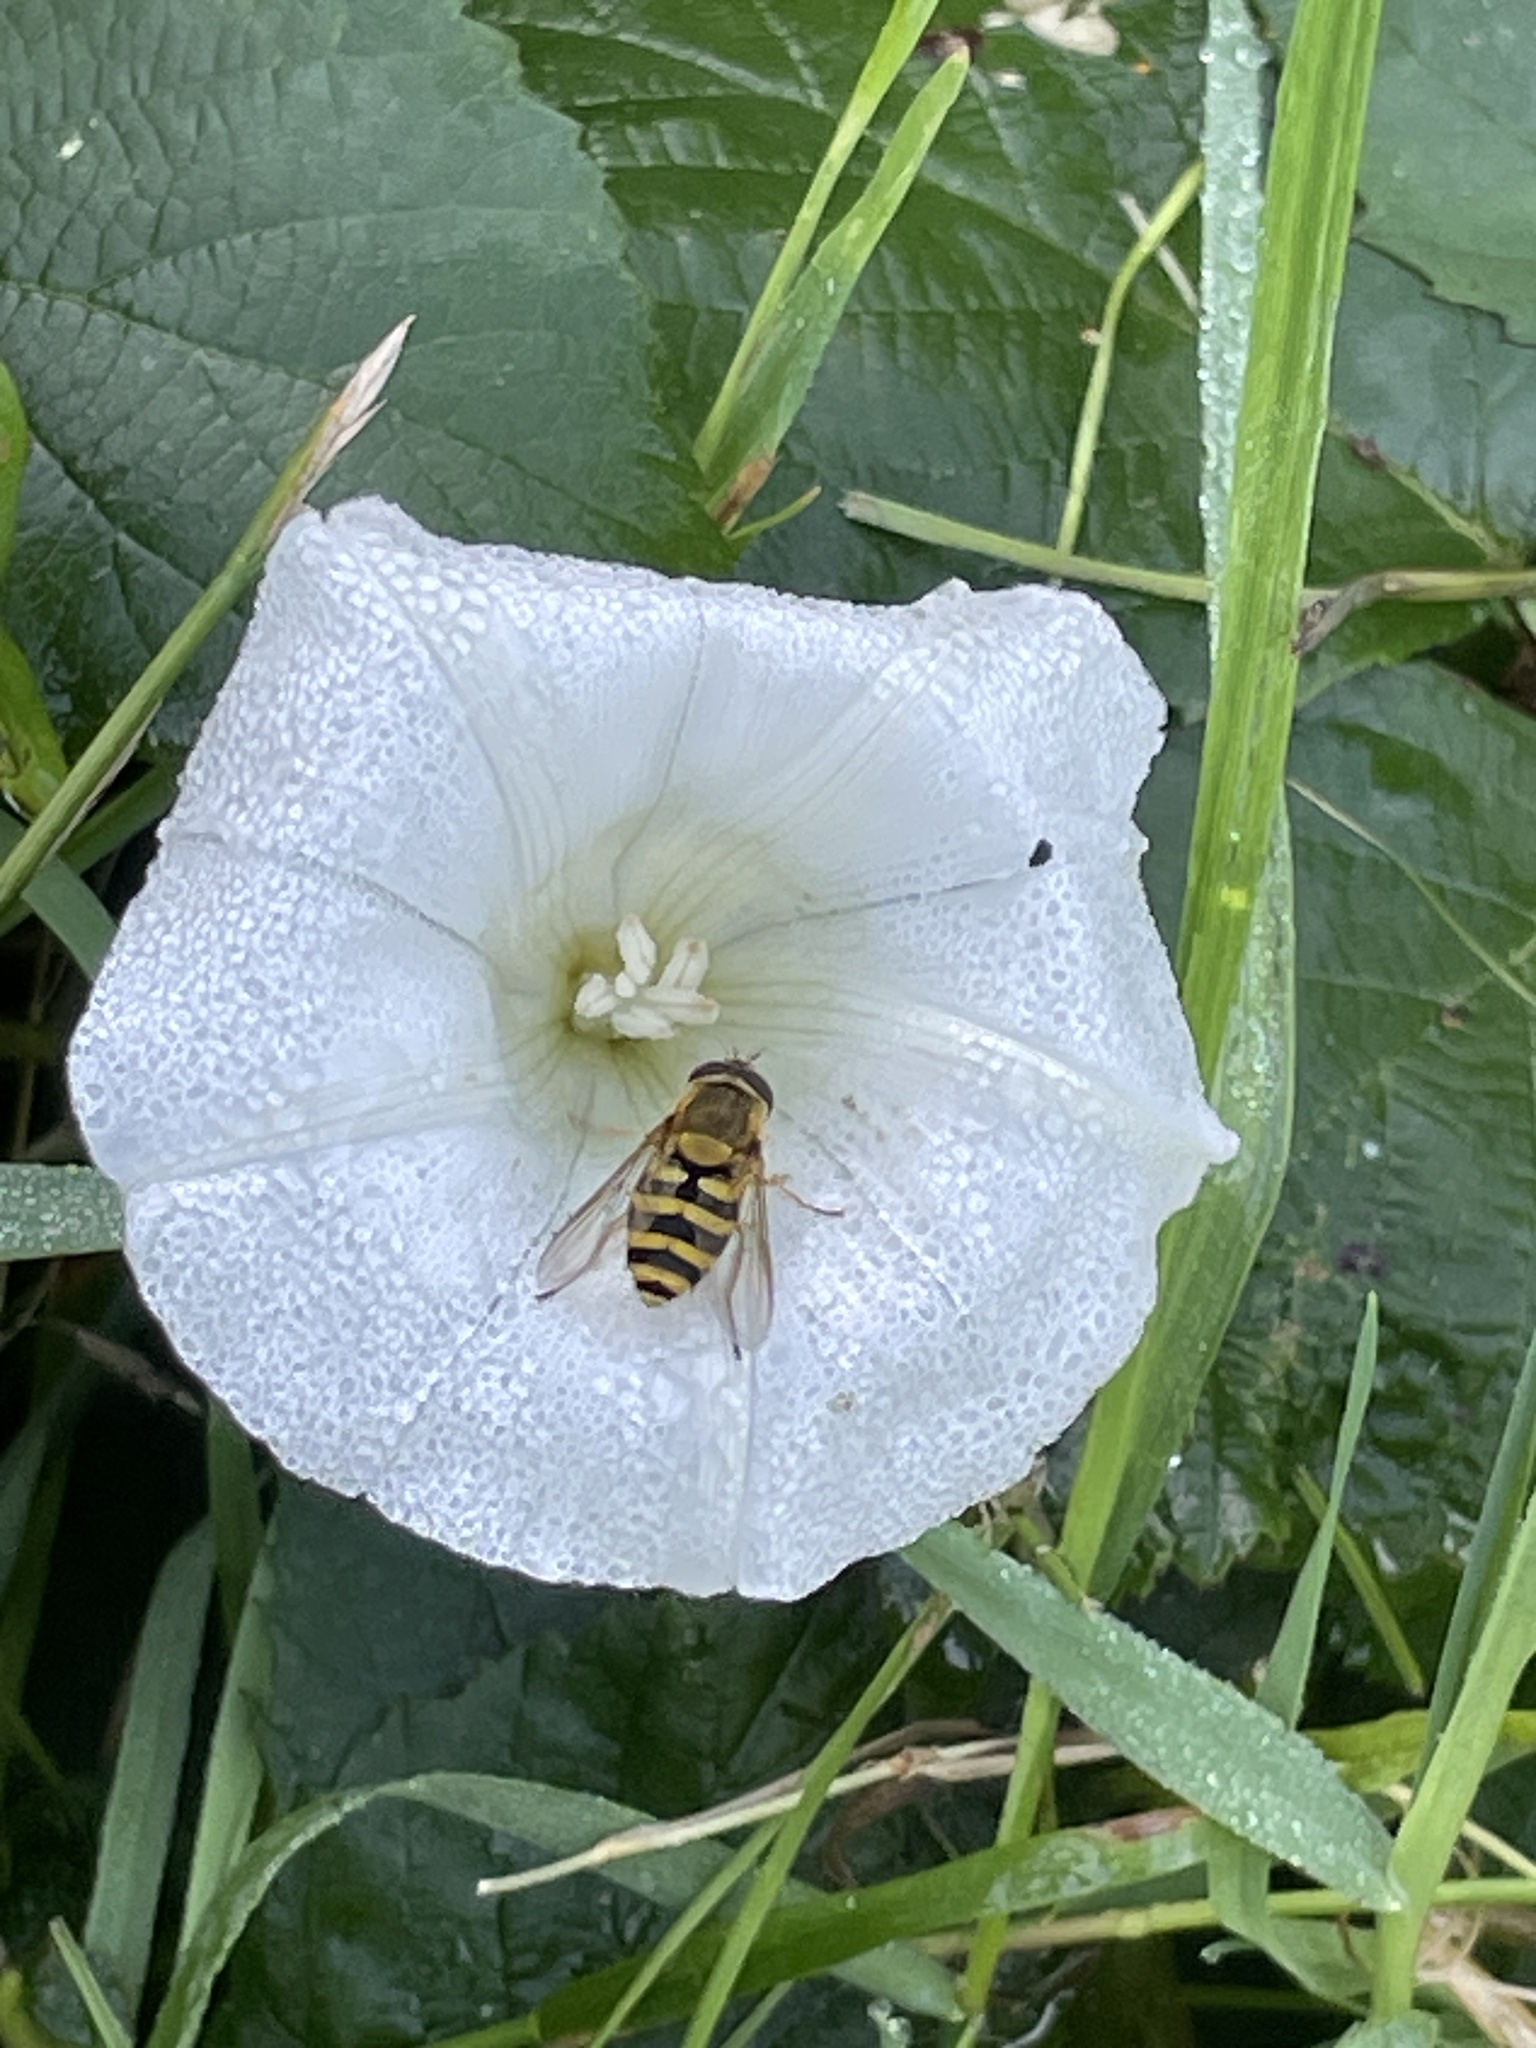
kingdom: Animalia
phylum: Arthropoda
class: Insecta
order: Diptera
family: Syrphidae
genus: Syrphus
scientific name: Syrphus
